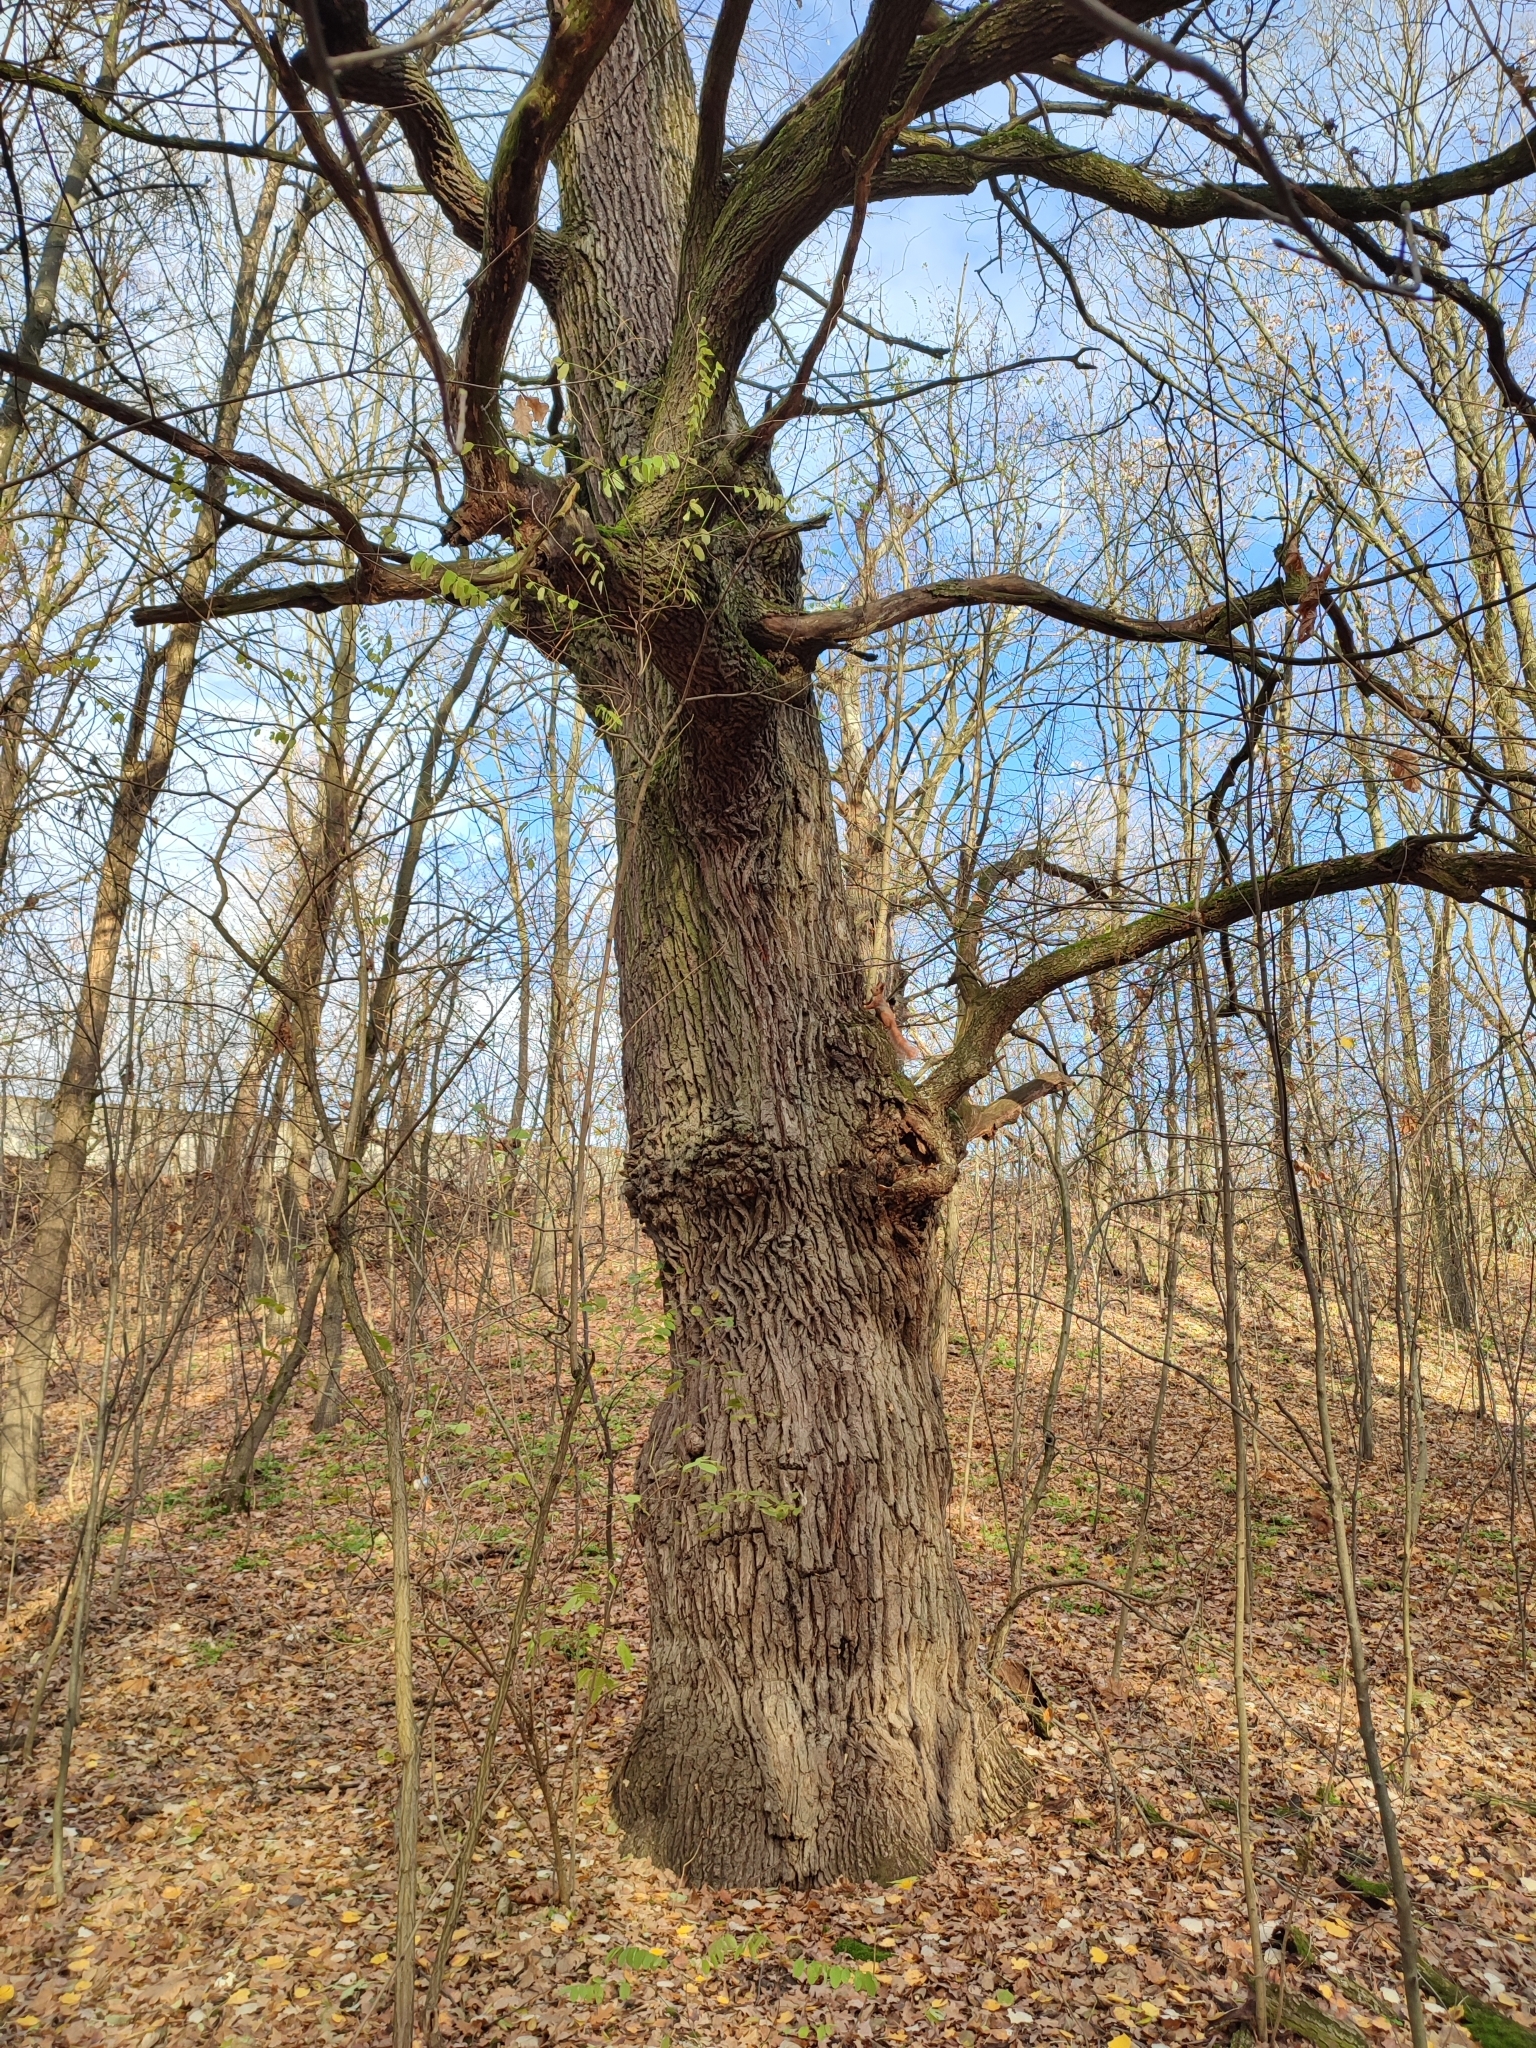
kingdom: Plantae
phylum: Tracheophyta
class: Magnoliopsida
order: Fagales
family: Fagaceae
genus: Quercus
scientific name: Quercus robur
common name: Pedunculate oak
